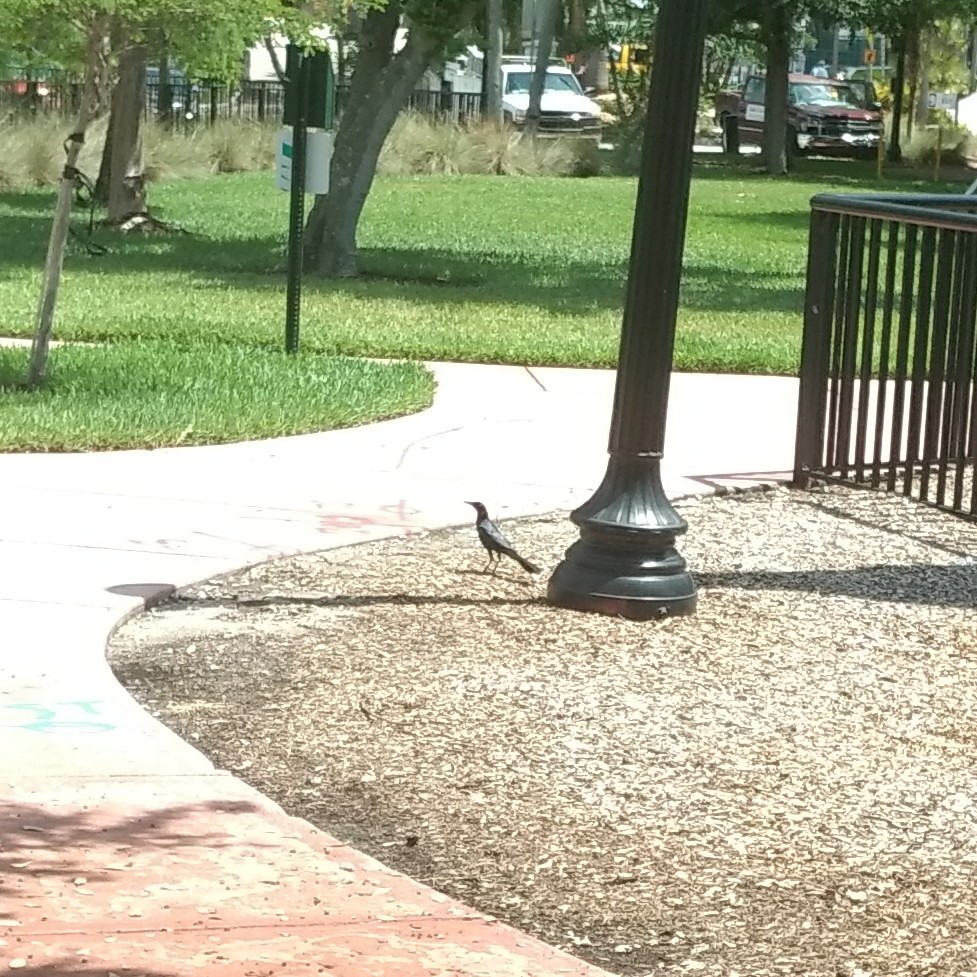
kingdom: Animalia
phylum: Chordata
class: Aves
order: Passeriformes
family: Icteridae
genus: Quiscalus
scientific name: Quiscalus major
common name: Boat-tailed grackle
